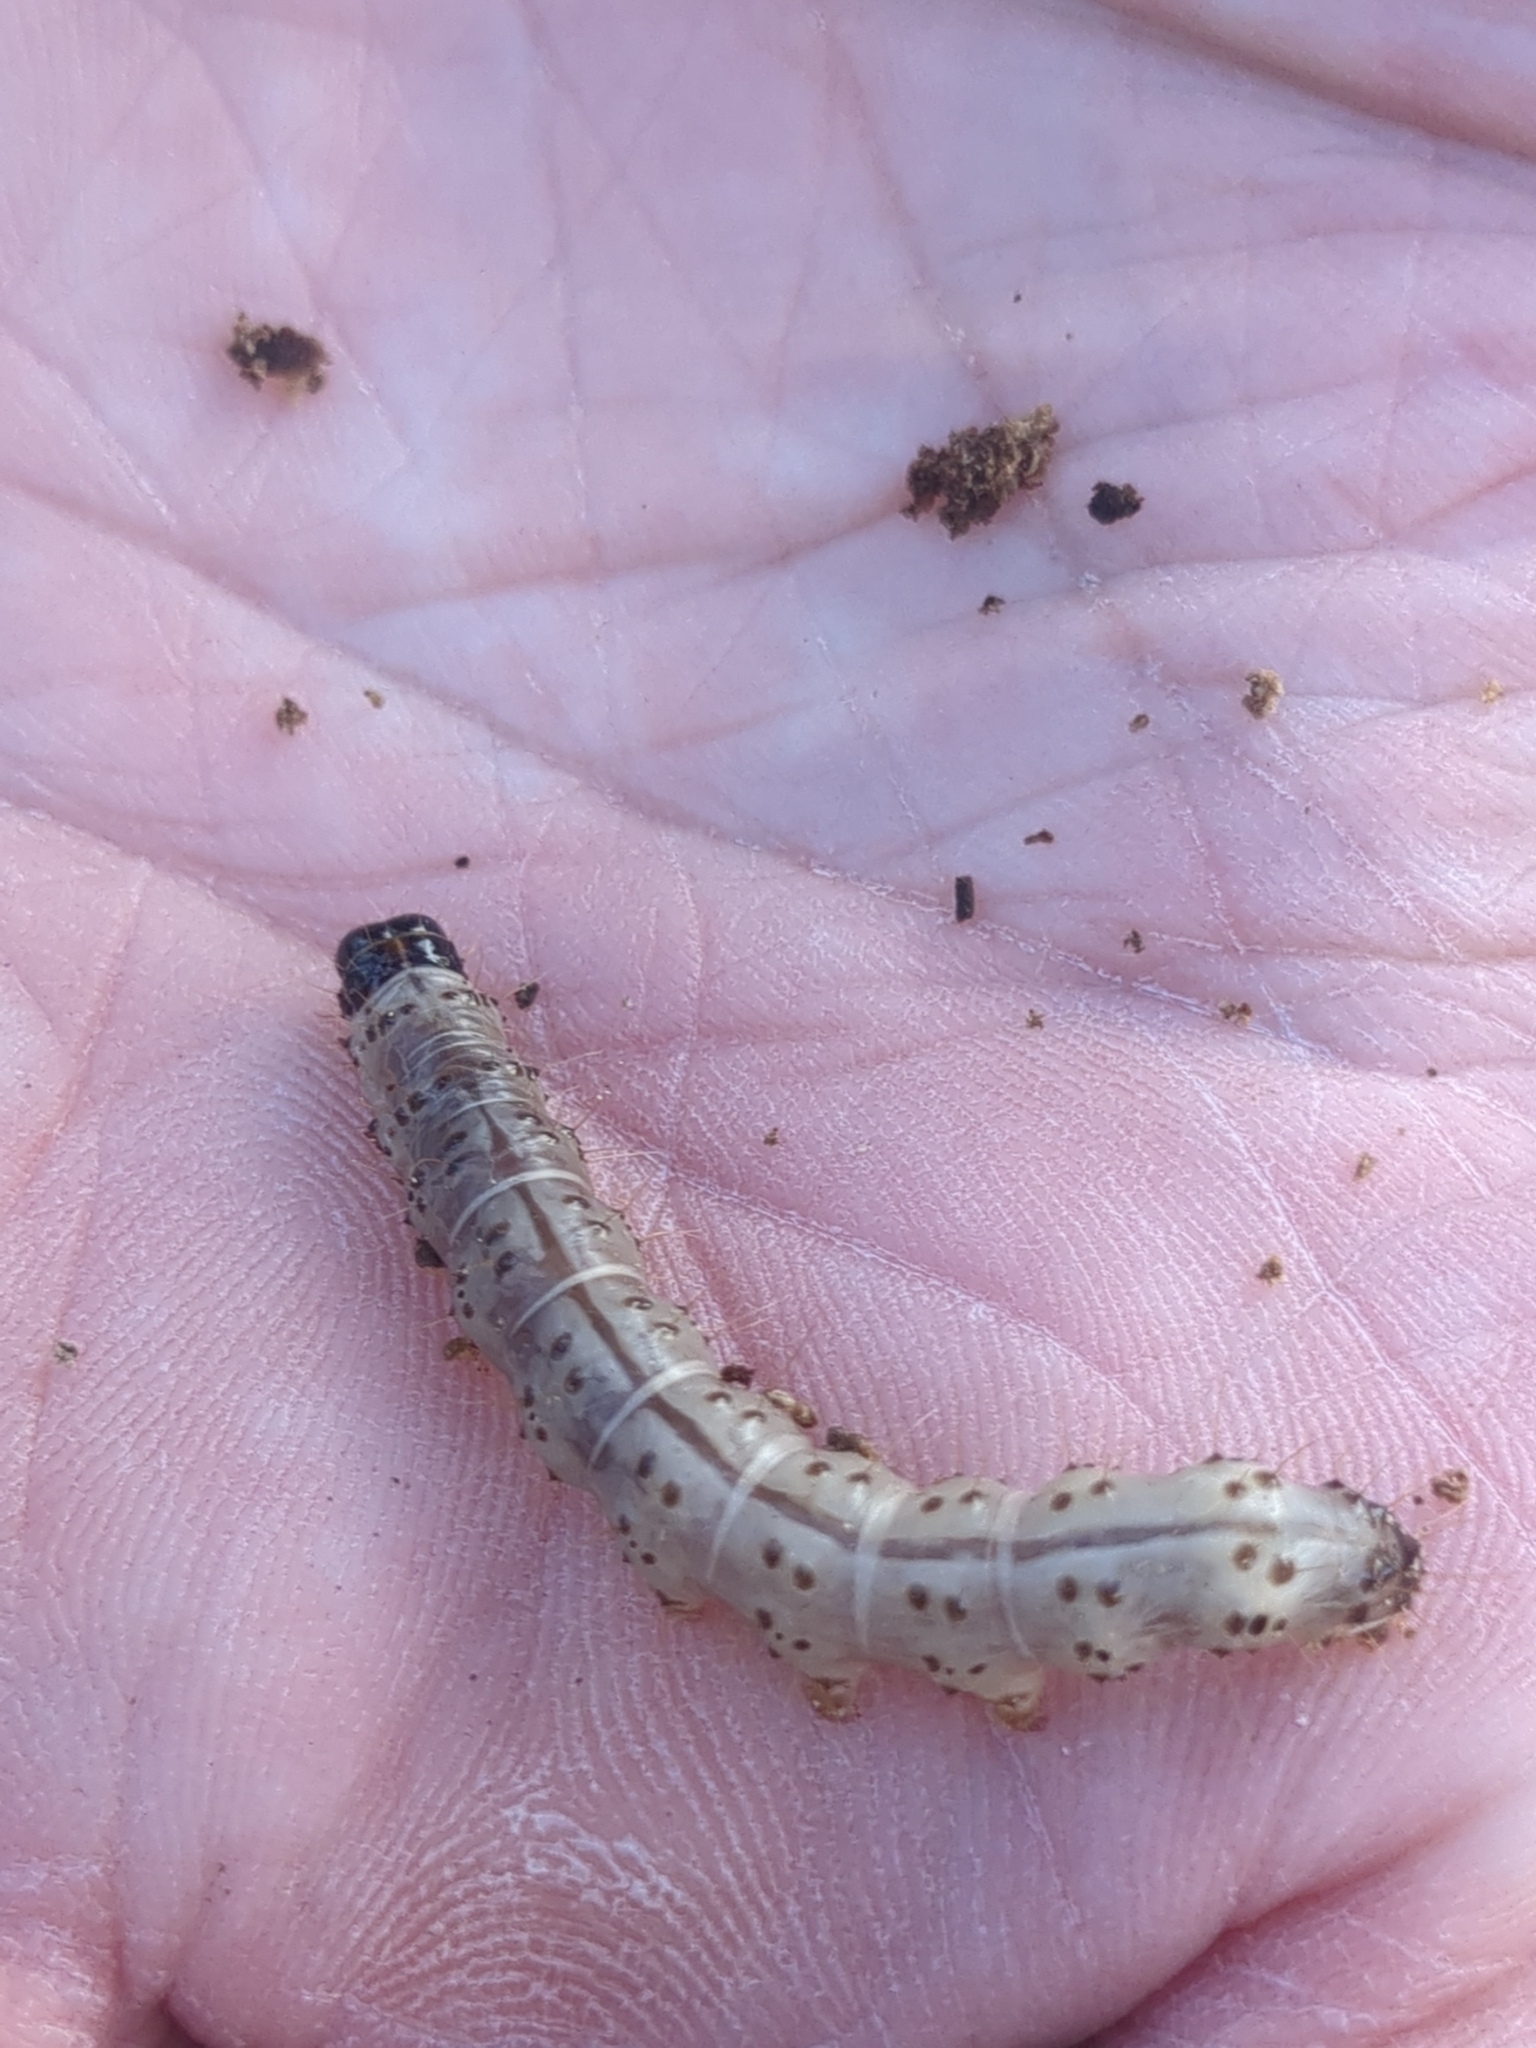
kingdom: Animalia
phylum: Arthropoda
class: Insecta
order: Lepidoptera
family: Erebidae
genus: Scolecocampa
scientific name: Scolecocampa liburna
